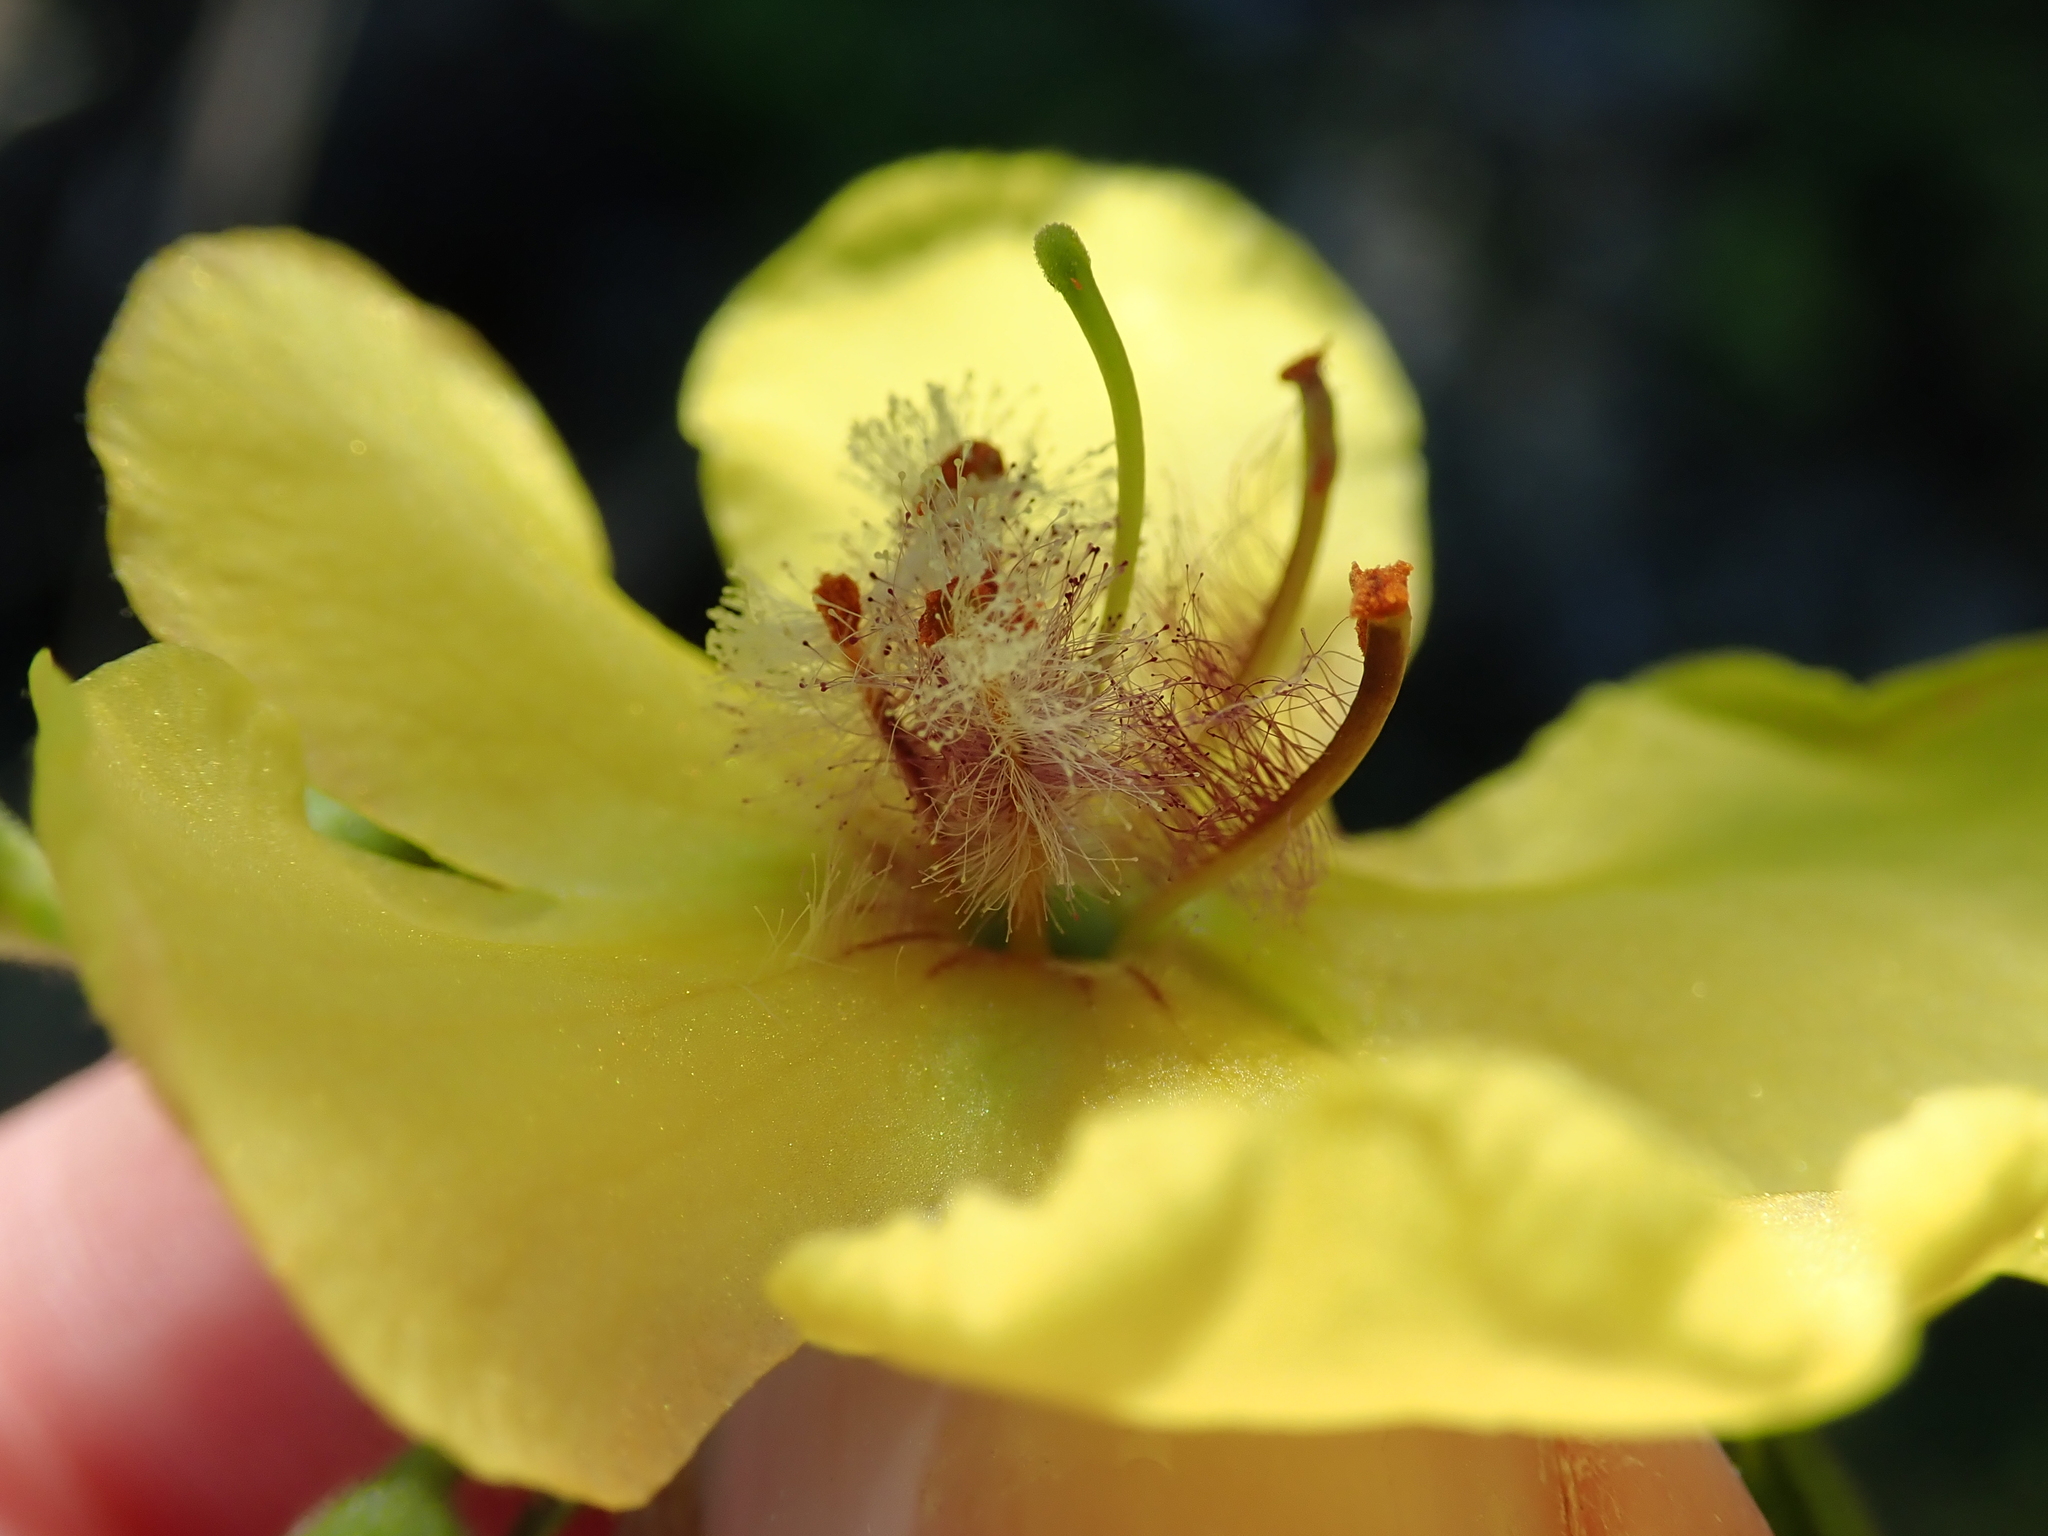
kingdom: Plantae
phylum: Tracheophyta
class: Magnoliopsida
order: Lamiales
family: Scrophulariaceae
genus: Verbascum
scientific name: Verbascum maurum
